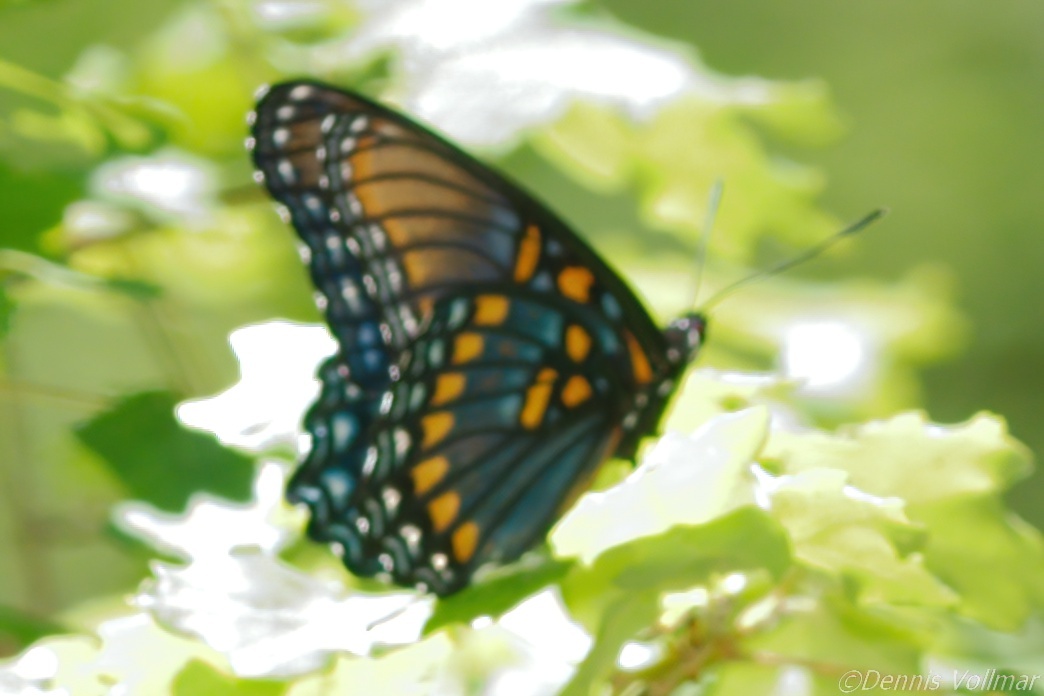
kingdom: Animalia
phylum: Arthropoda
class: Insecta
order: Lepidoptera
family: Nymphalidae
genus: Limenitis
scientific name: Limenitis arthemis
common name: Red-spotted admiral
